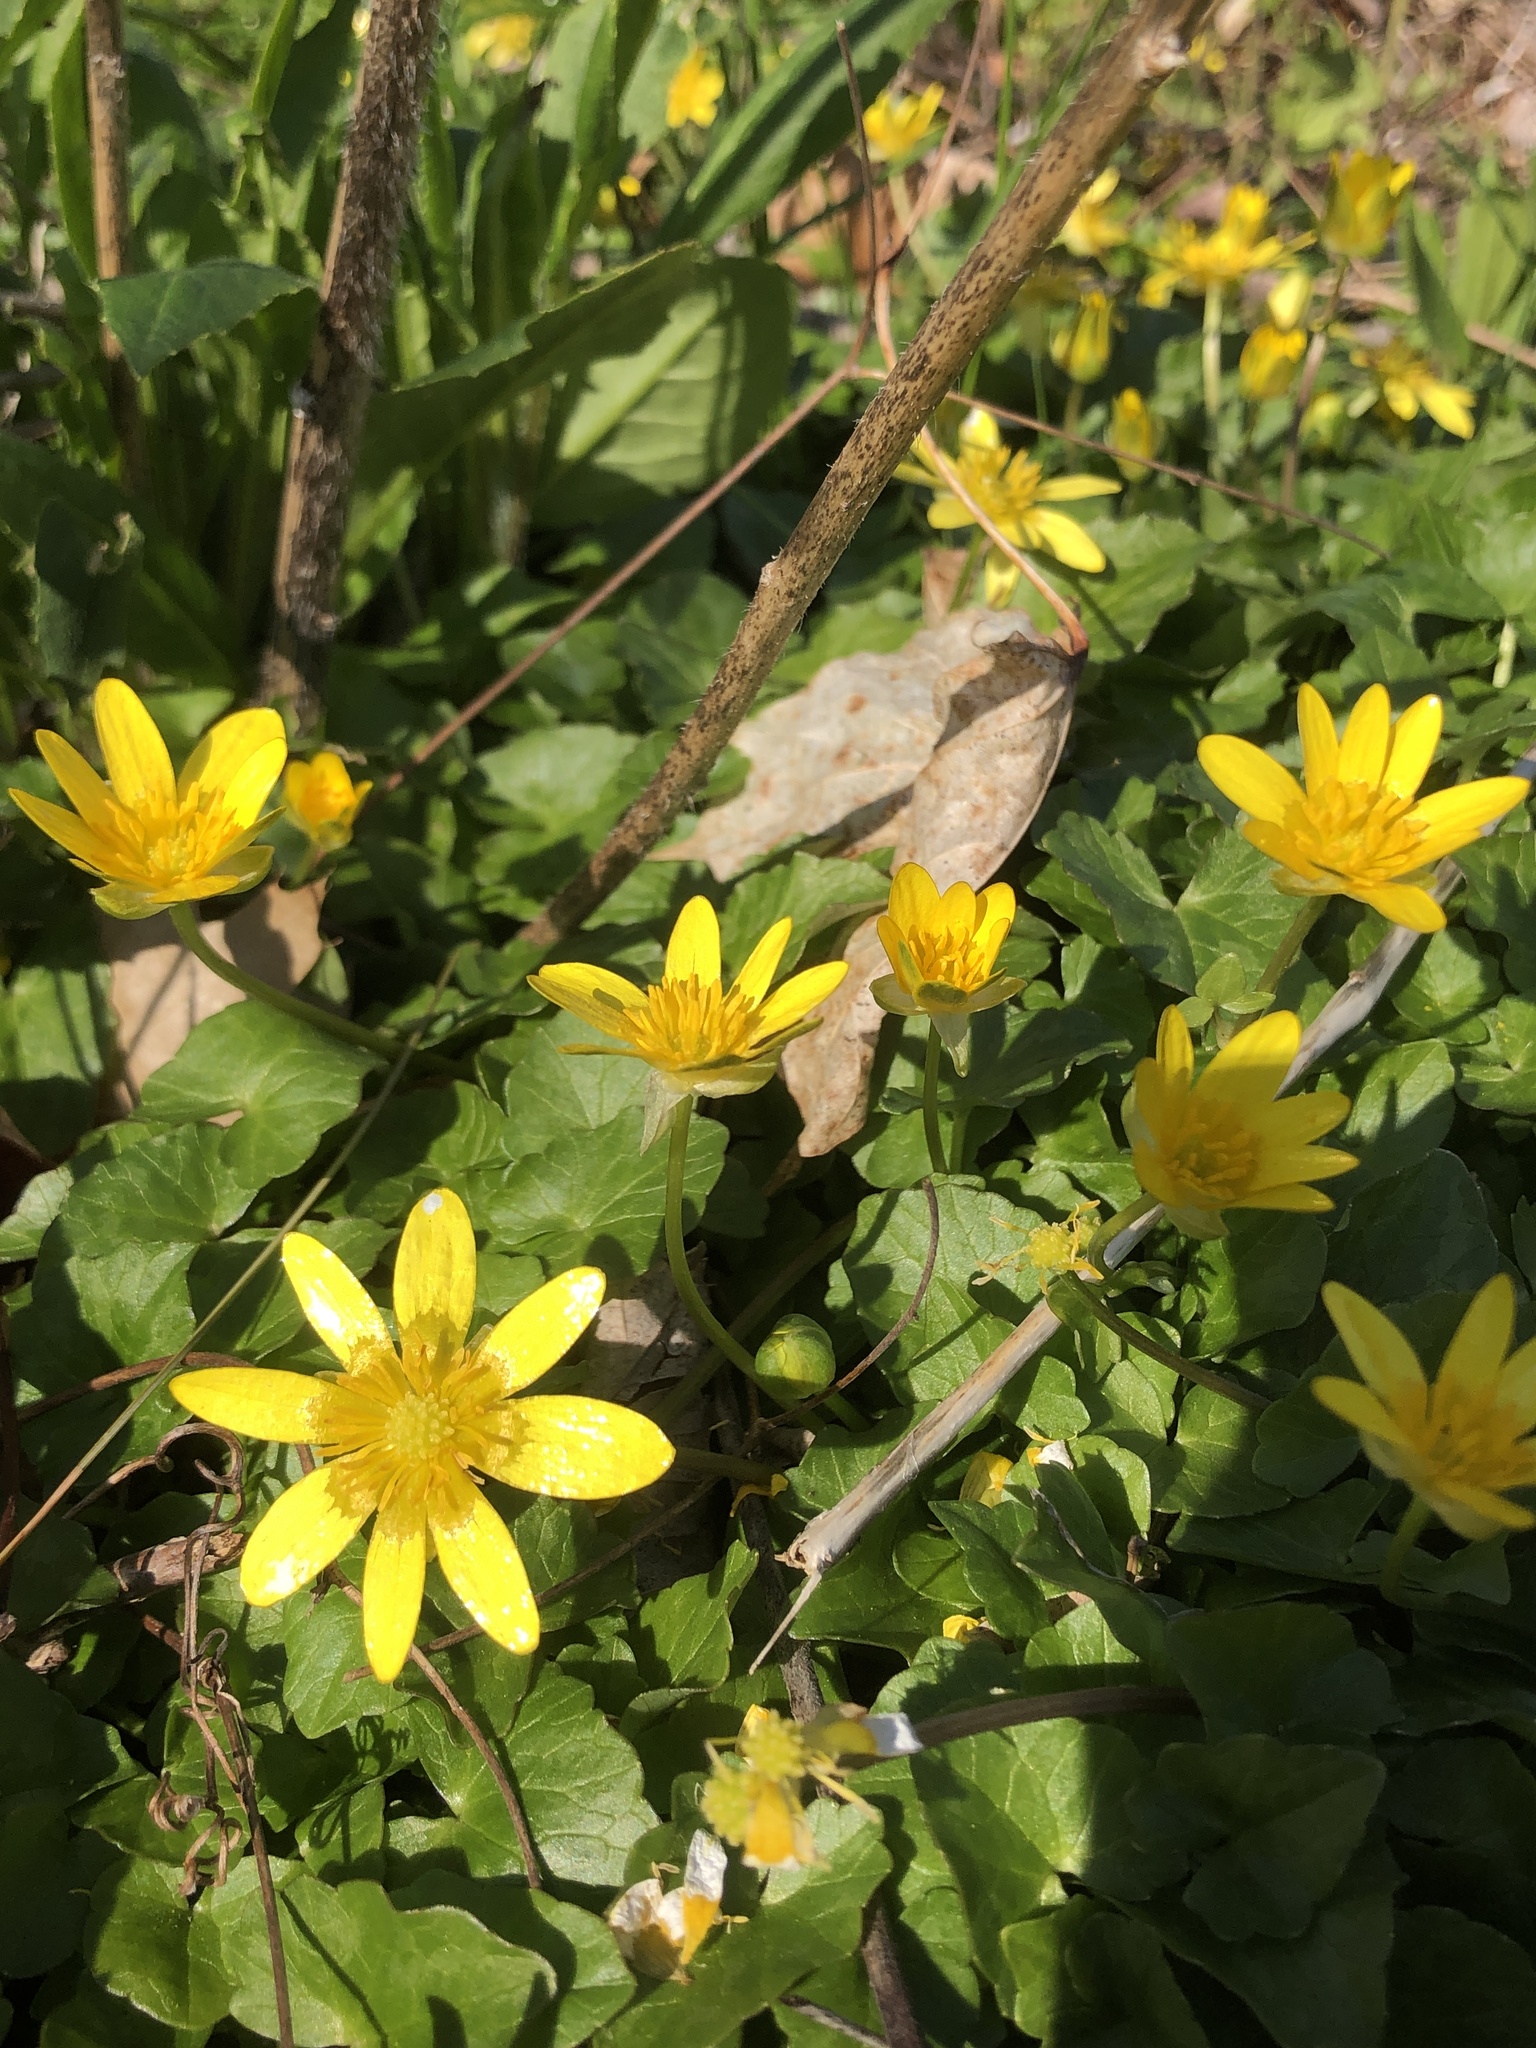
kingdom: Plantae
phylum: Tracheophyta
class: Magnoliopsida
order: Ranunculales
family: Ranunculaceae
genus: Ficaria
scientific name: Ficaria verna
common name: Lesser celandine
